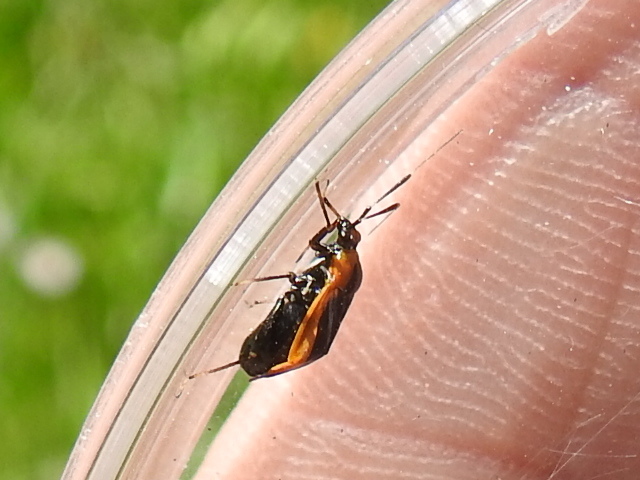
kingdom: Animalia
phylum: Arthropoda
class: Insecta
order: Hemiptera
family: Miridae
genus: Metriorrhynchomiris
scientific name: Metriorrhynchomiris dislocatus
